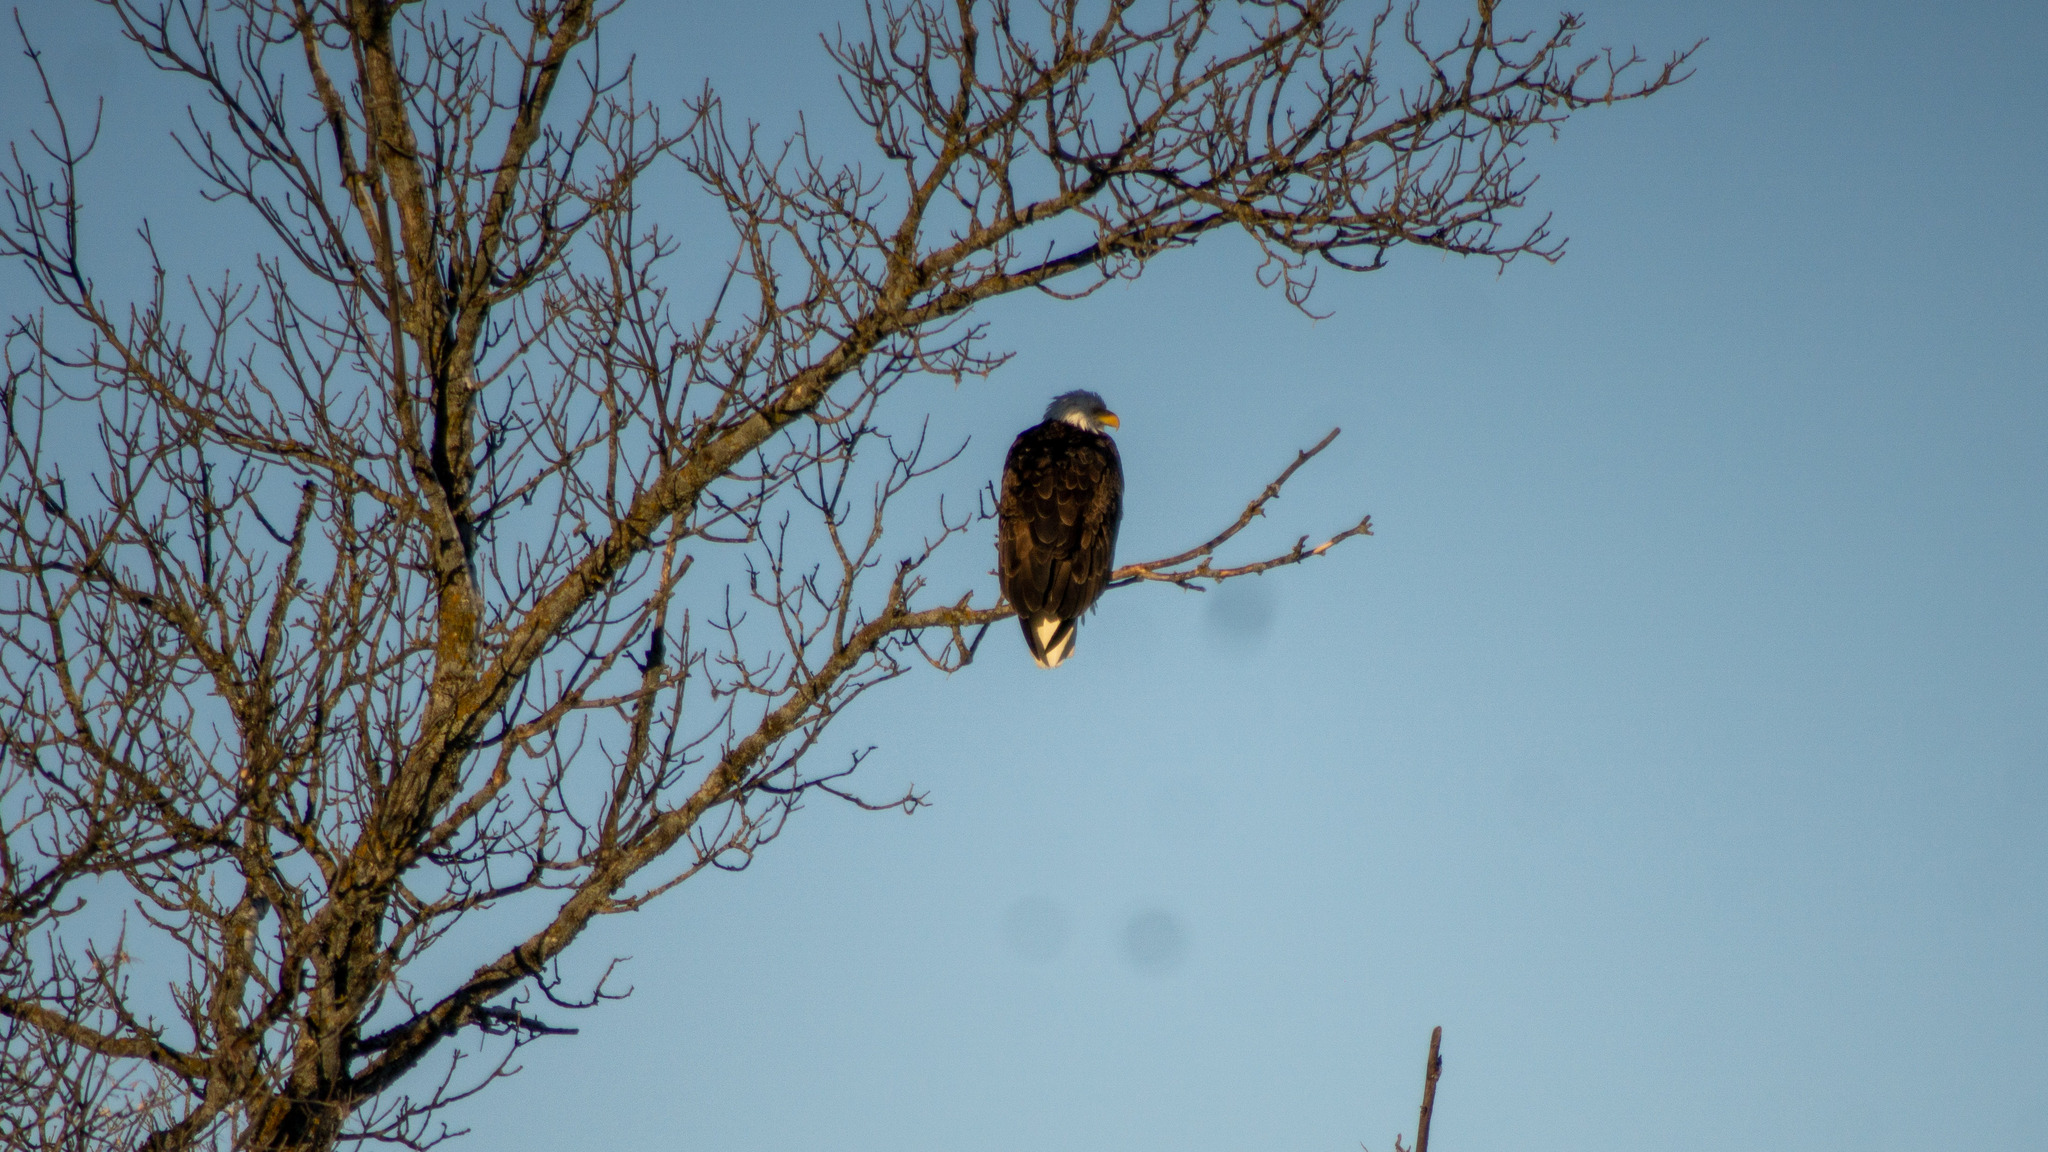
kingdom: Animalia
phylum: Chordata
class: Aves
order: Accipitriformes
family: Accipitridae
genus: Haliaeetus
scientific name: Haliaeetus leucocephalus
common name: Bald eagle
